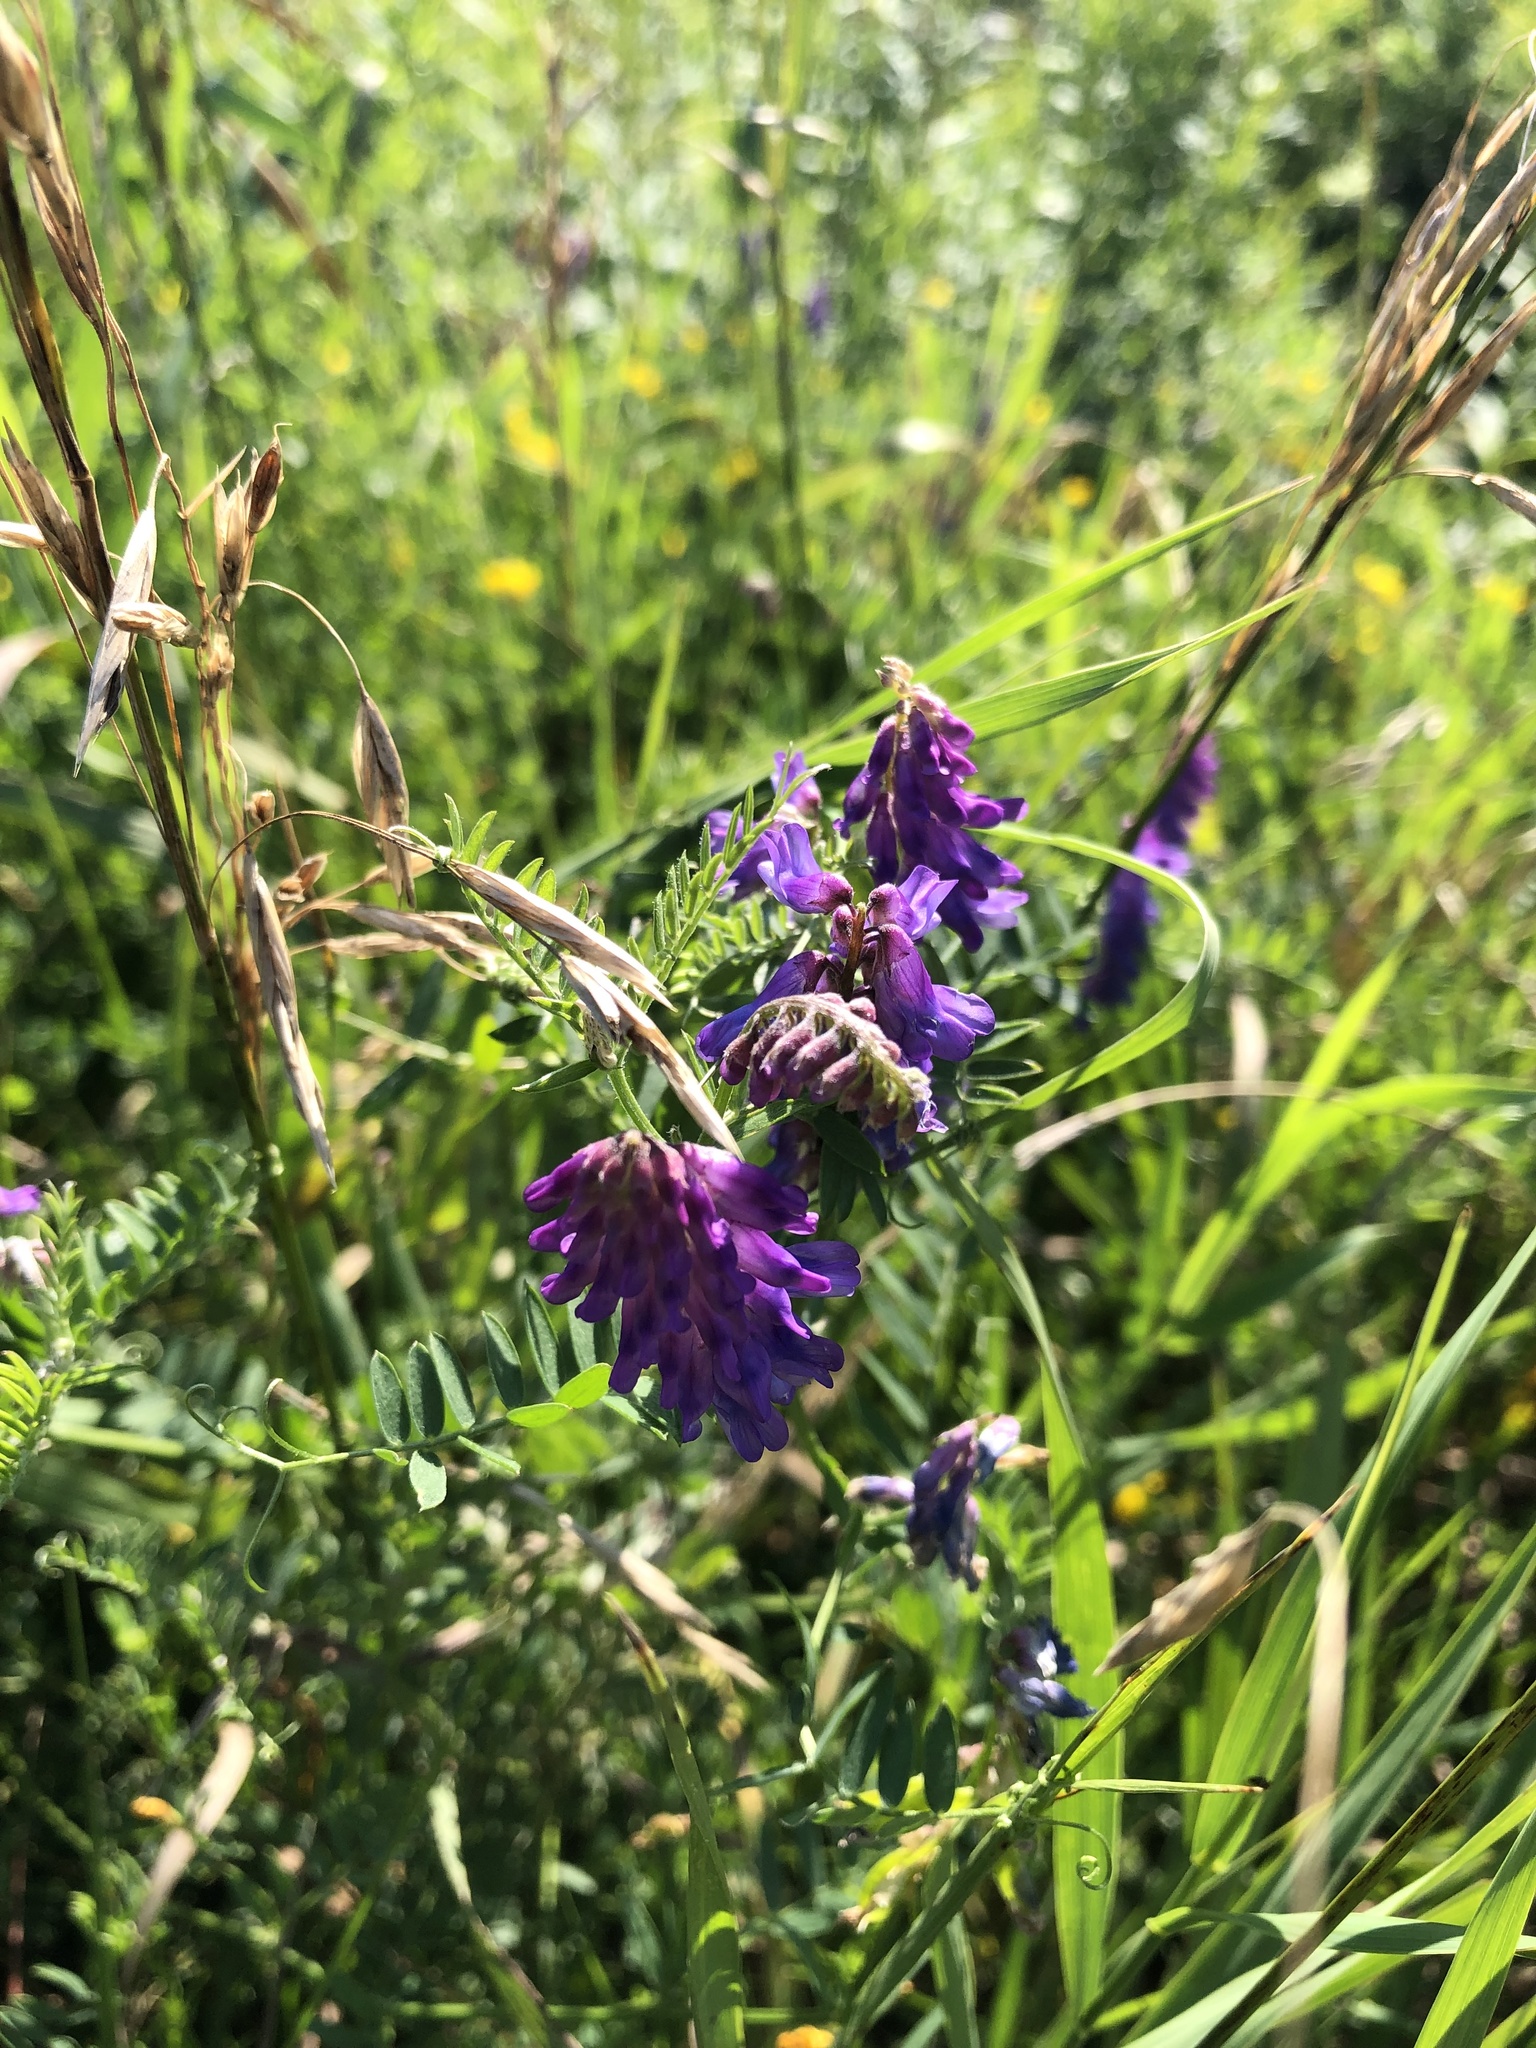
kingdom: Plantae
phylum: Tracheophyta
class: Magnoliopsida
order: Fabales
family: Fabaceae
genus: Vicia
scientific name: Vicia cracca
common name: Bird vetch
